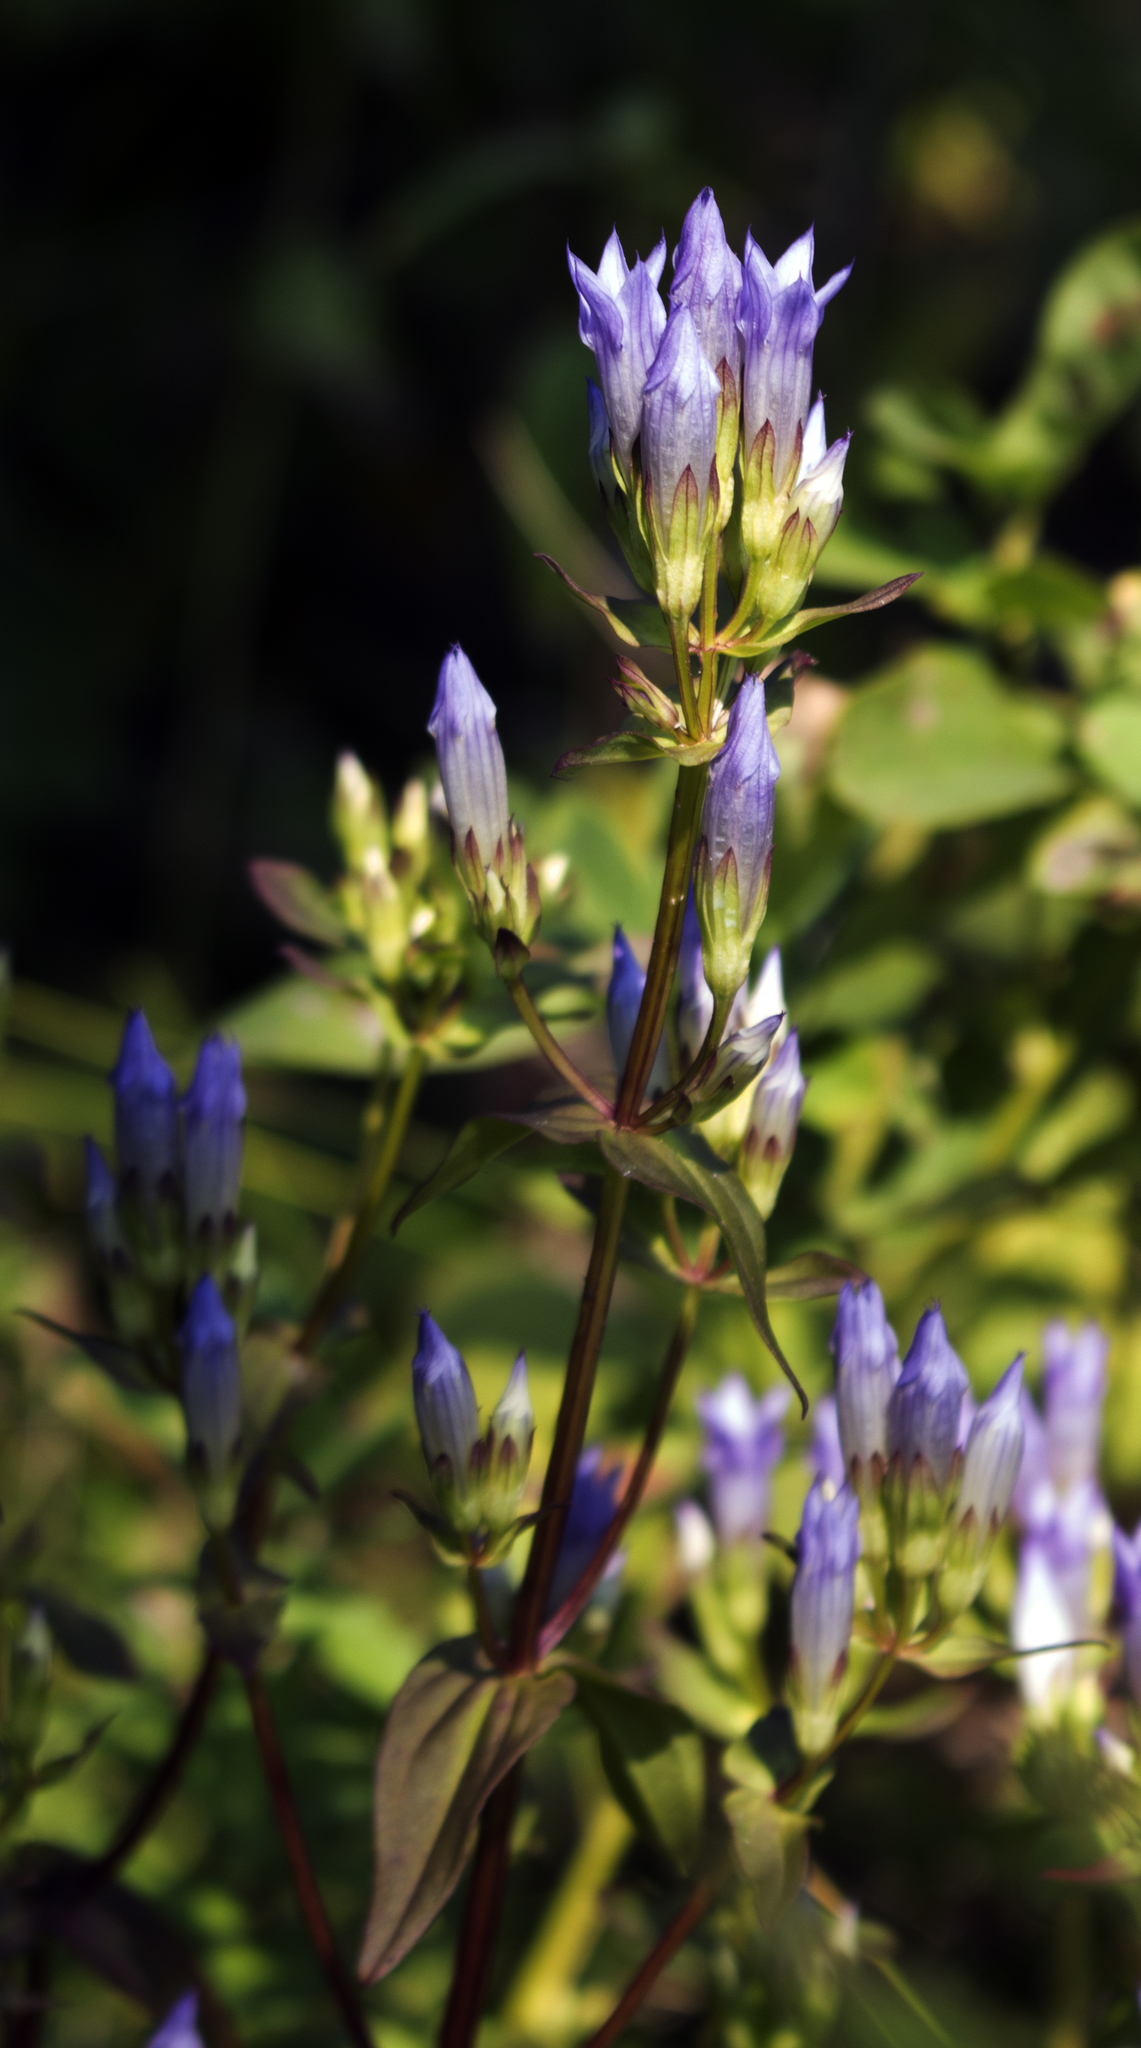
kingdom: Plantae
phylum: Tracheophyta
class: Magnoliopsida
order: Gentianales
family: Gentianaceae
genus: Gentianella
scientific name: Gentianella quinquefolia
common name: Agueweed
